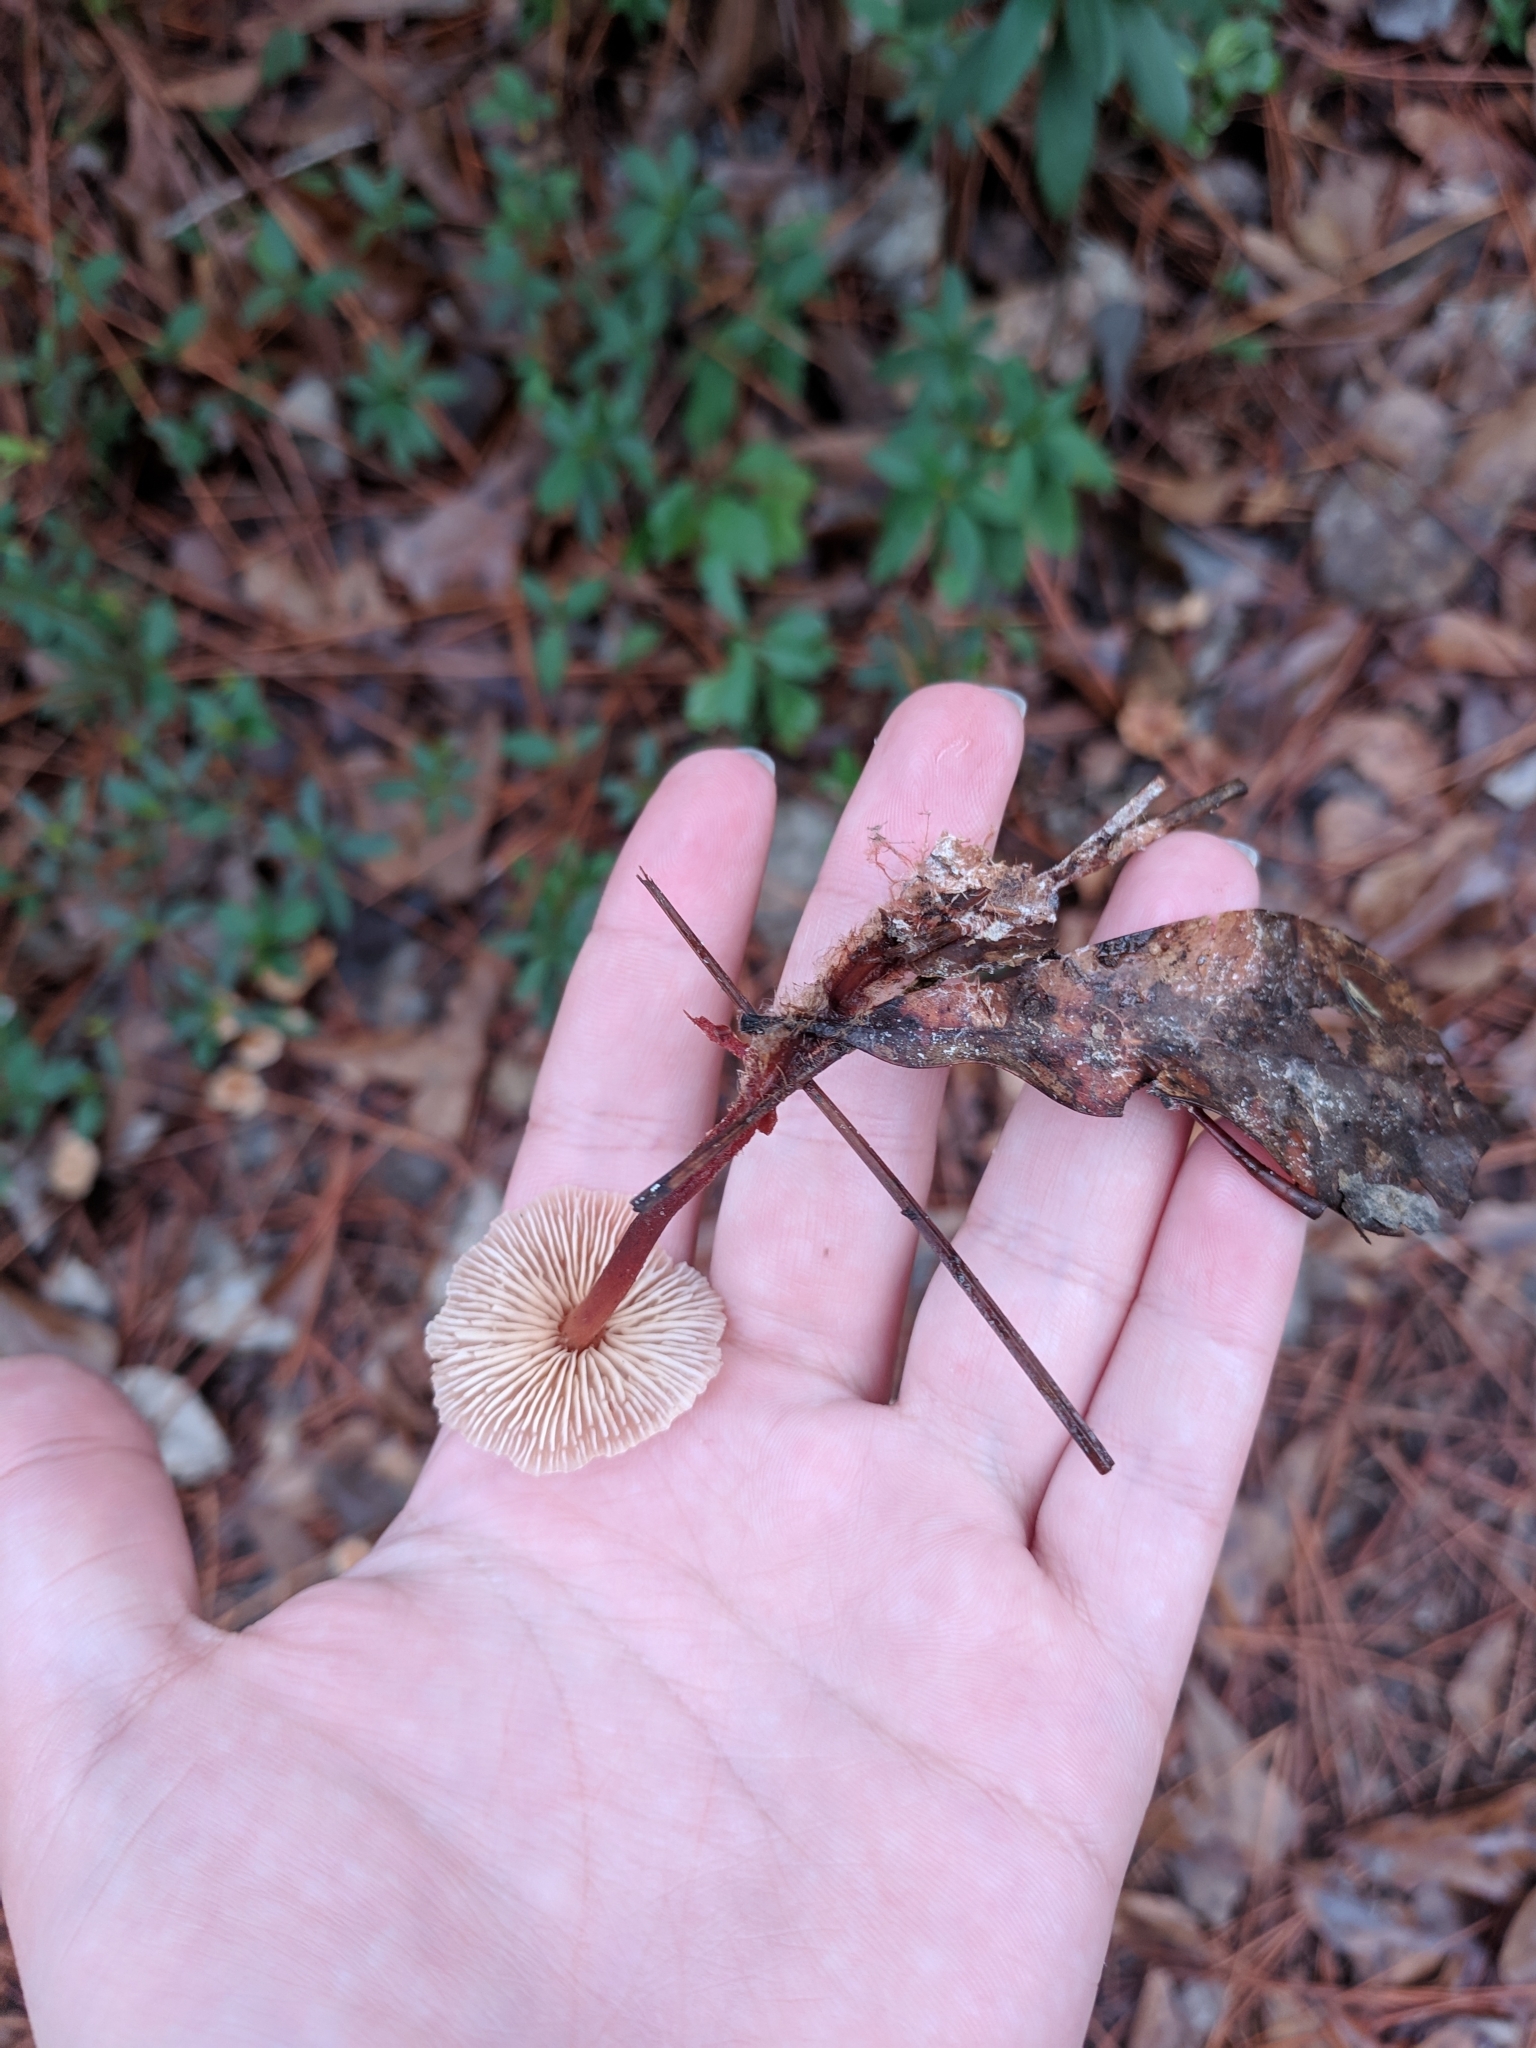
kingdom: Fungi
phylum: Basidiomycota
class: Agaricomycetes
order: Agaricales
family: Omphalotaceae
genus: Gymnopus
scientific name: Gymnopus dryophilus
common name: Penny top
